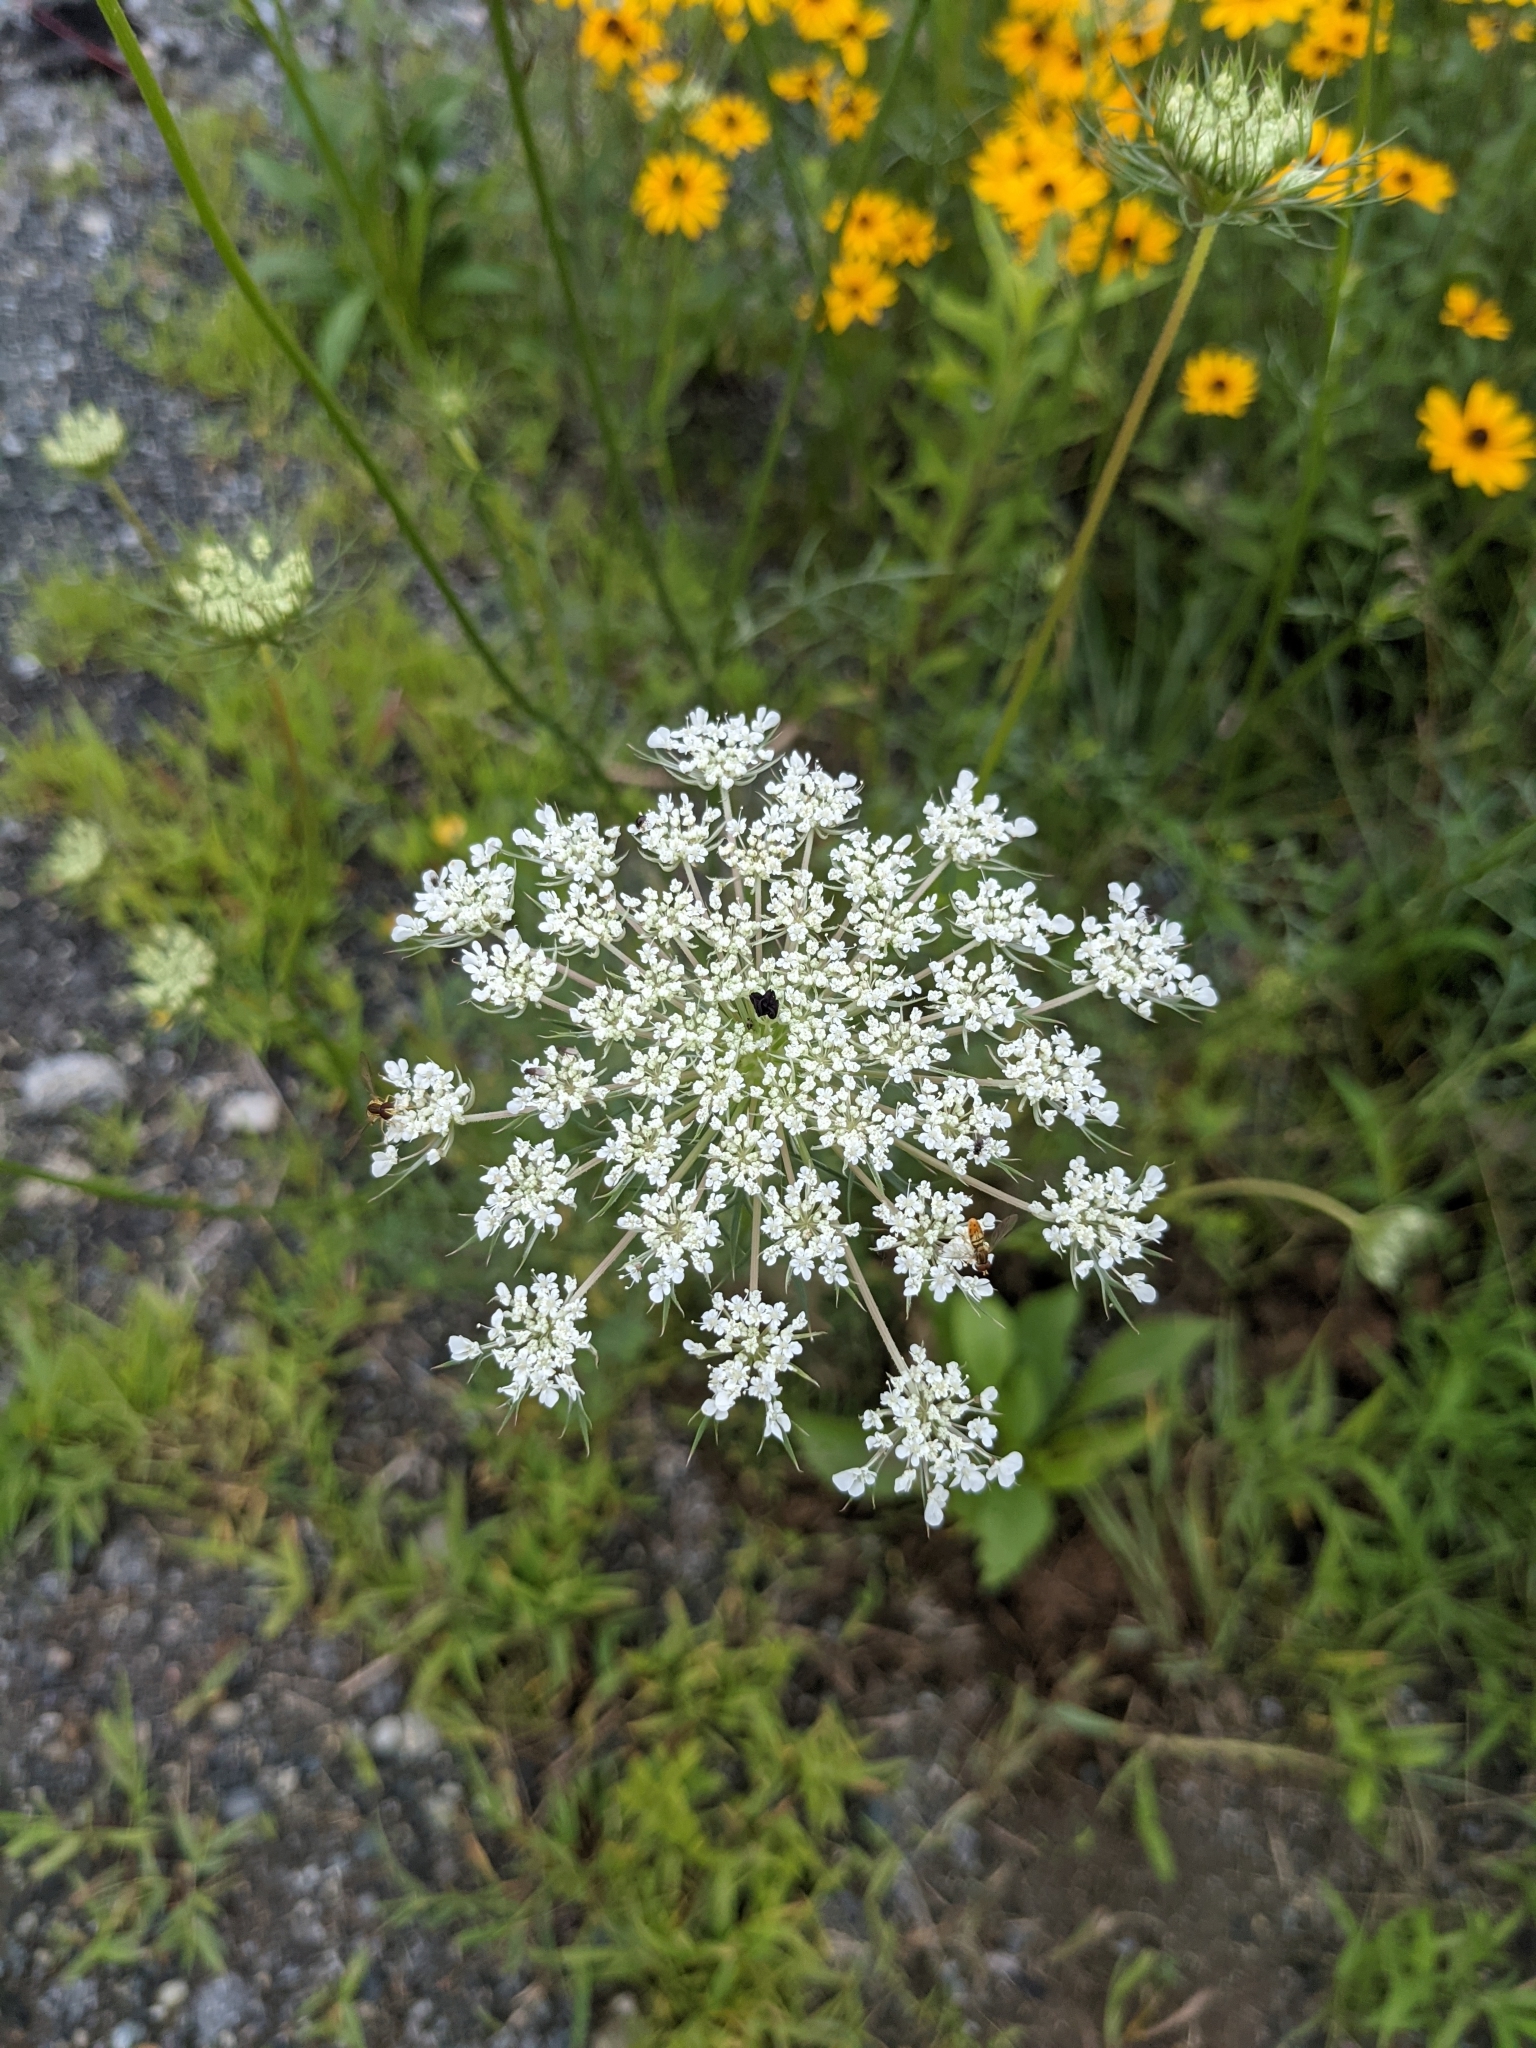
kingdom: Plantae
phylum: Tracheophyta
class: Magnoliopsida
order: Apiales
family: Apiaceae
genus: Daucus
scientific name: Daucus carota
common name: Wild carrot
